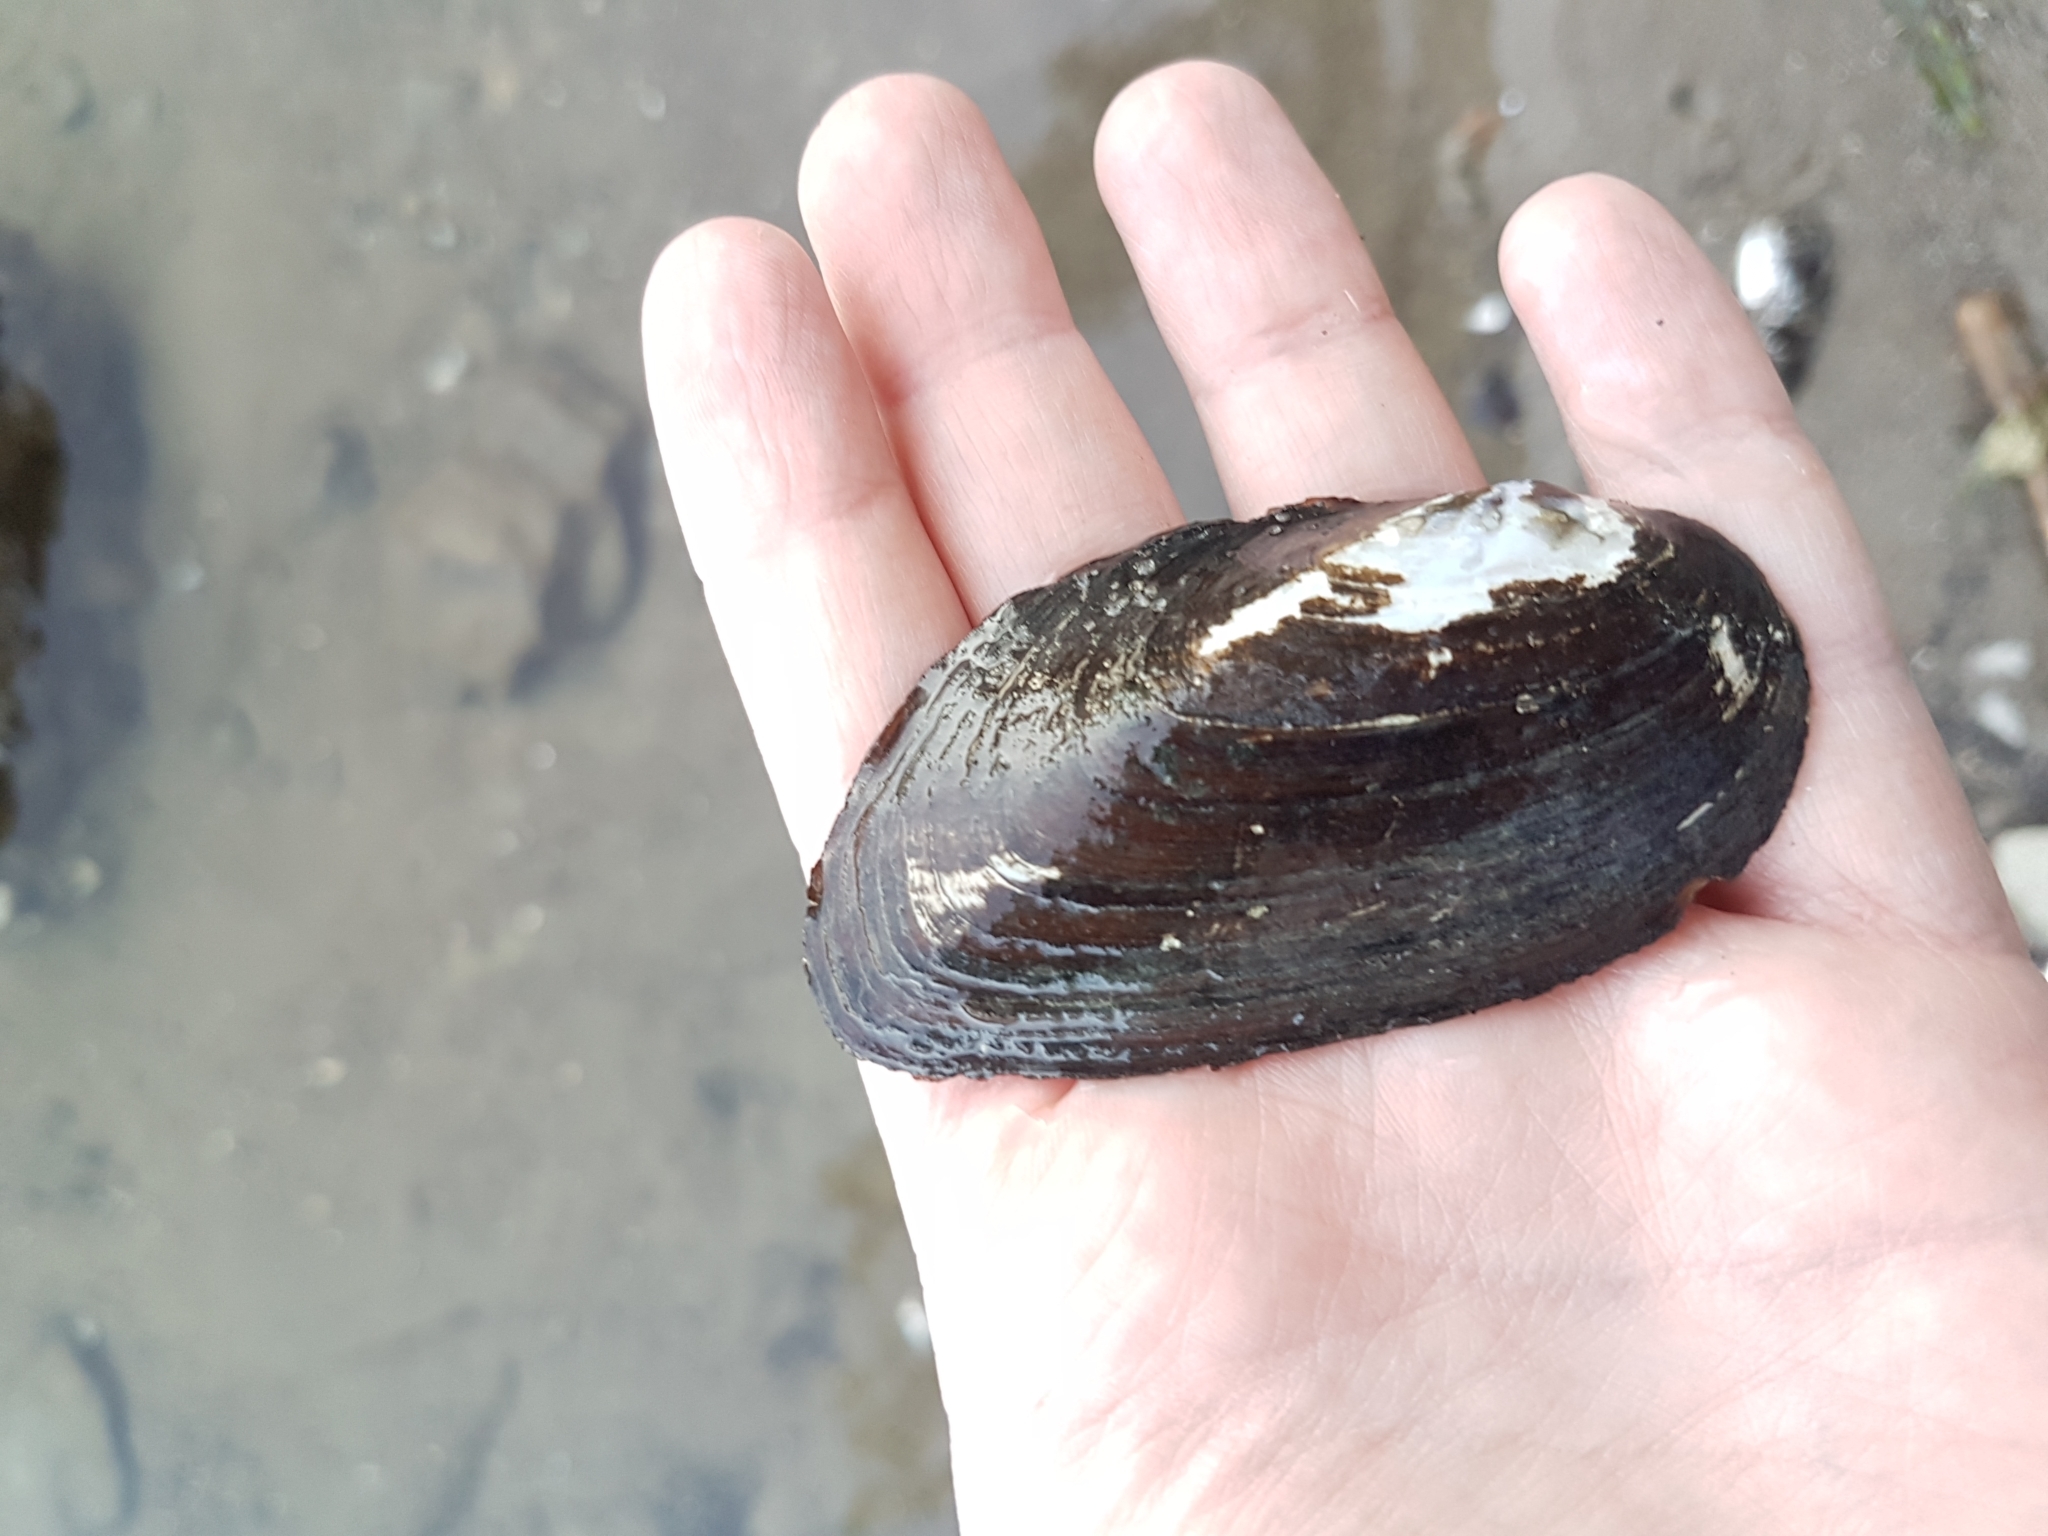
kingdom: Animalia
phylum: Mollusca
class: Bivalvia
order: Unionida
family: Unionidae
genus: Elliptio
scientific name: Elliptio complanata
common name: Eastern elliptio
